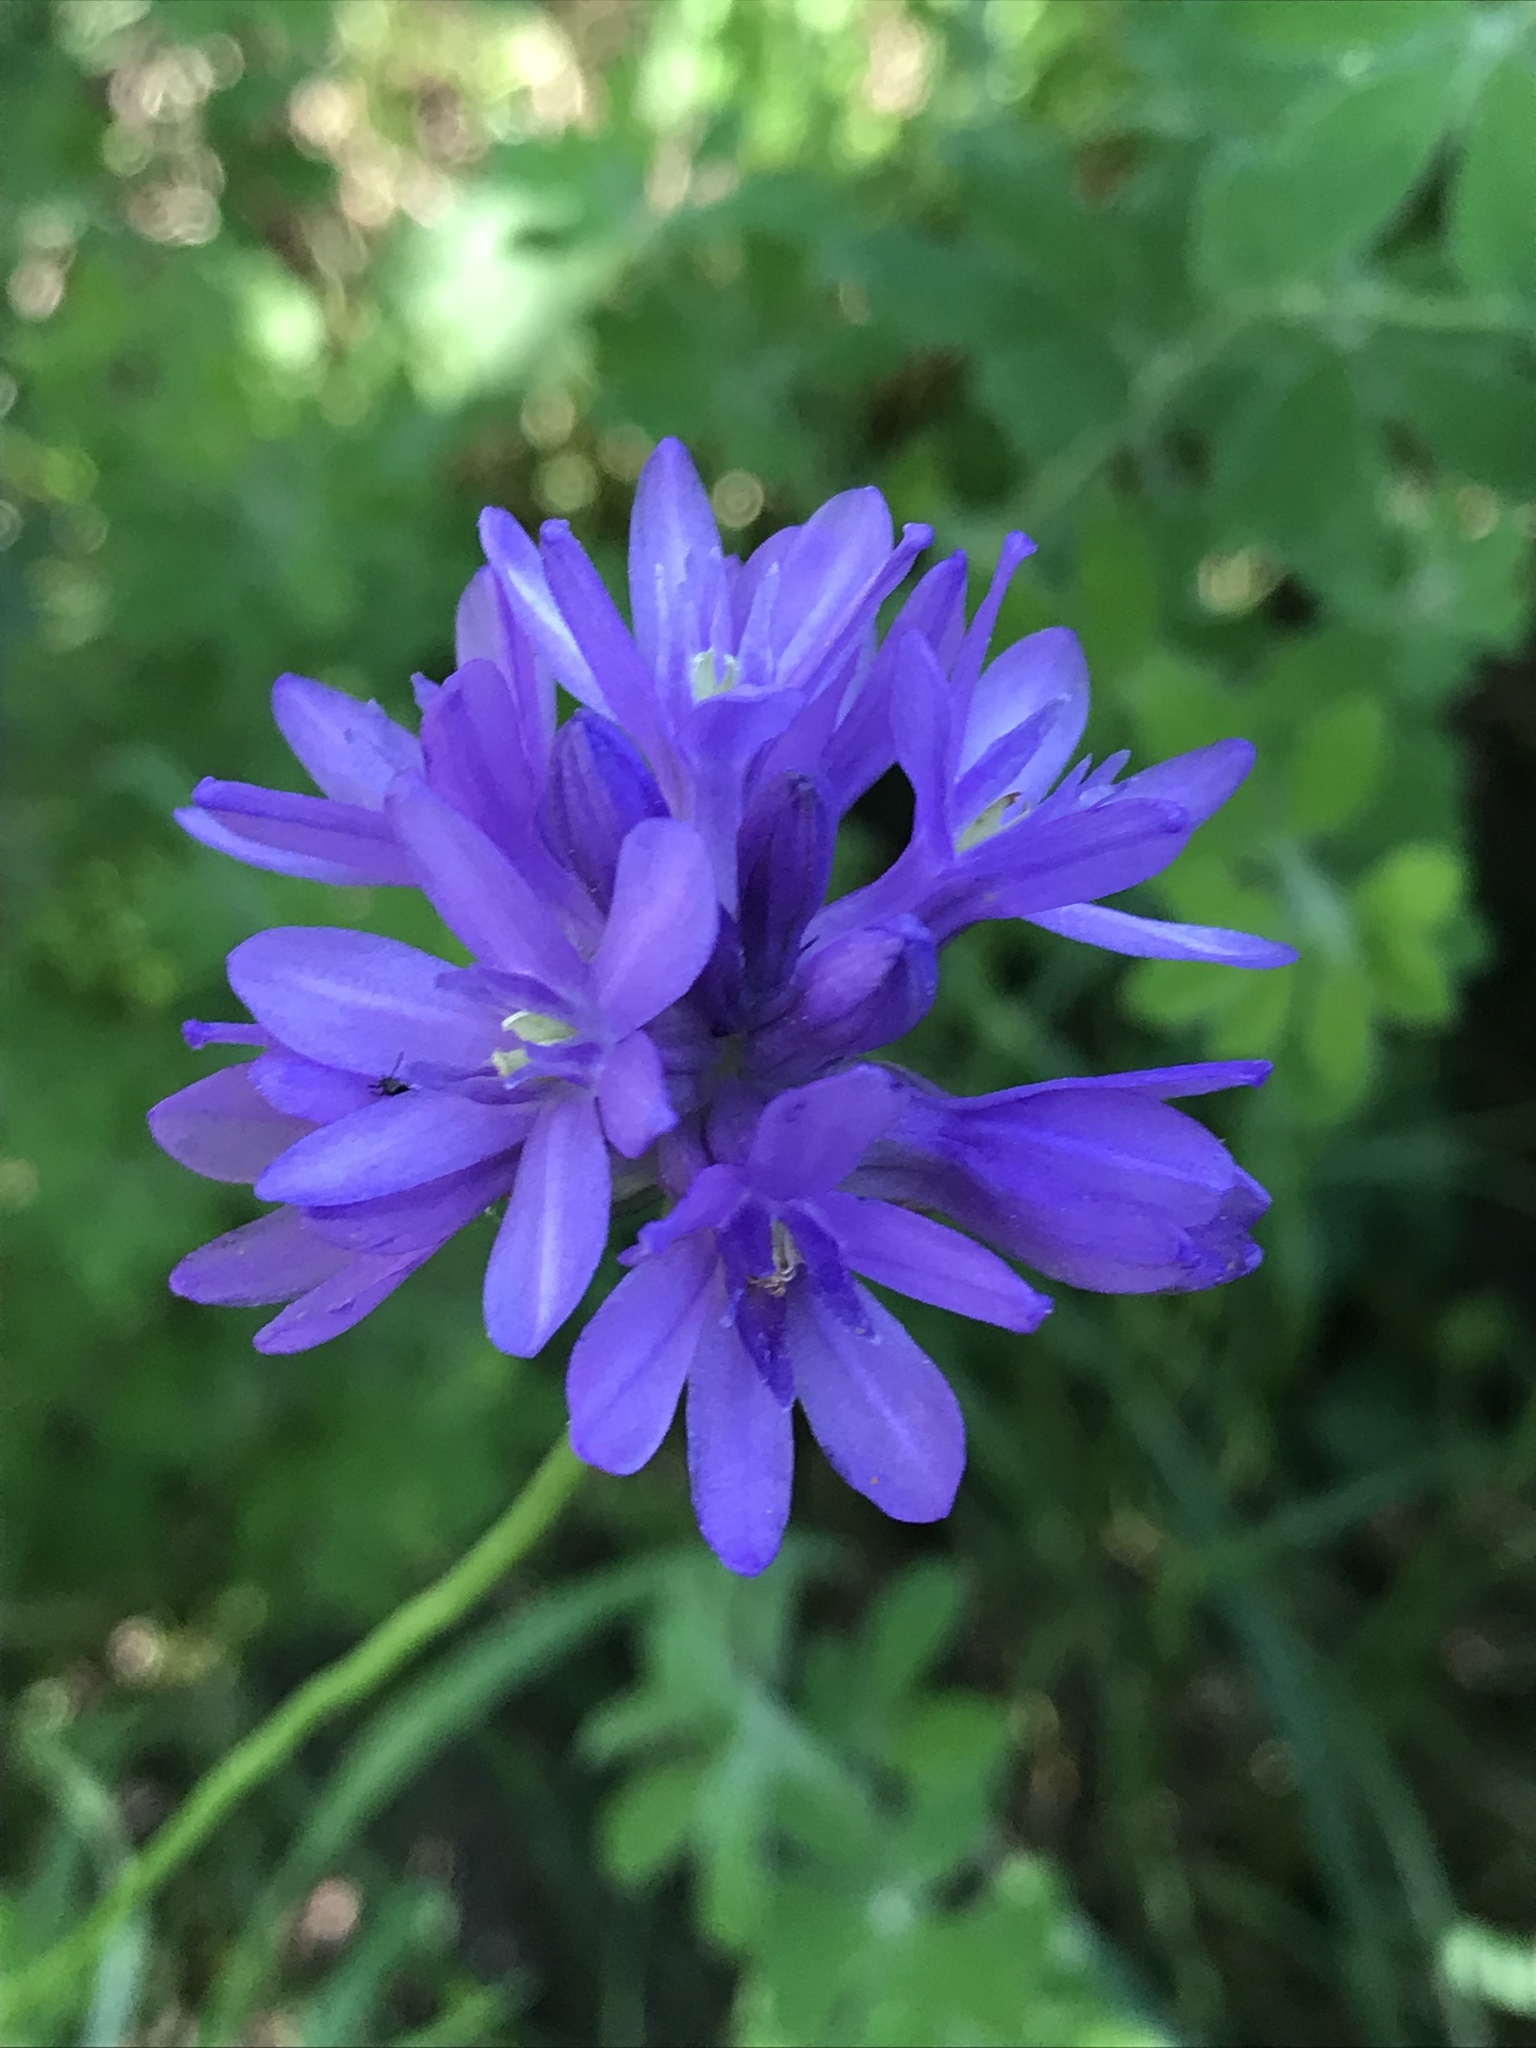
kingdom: Plantae
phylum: Tracheophyta
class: Liliopsida
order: Asparagales
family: Asparagaceae
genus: Dipterostemon
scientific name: Dipterostemon capitatus
